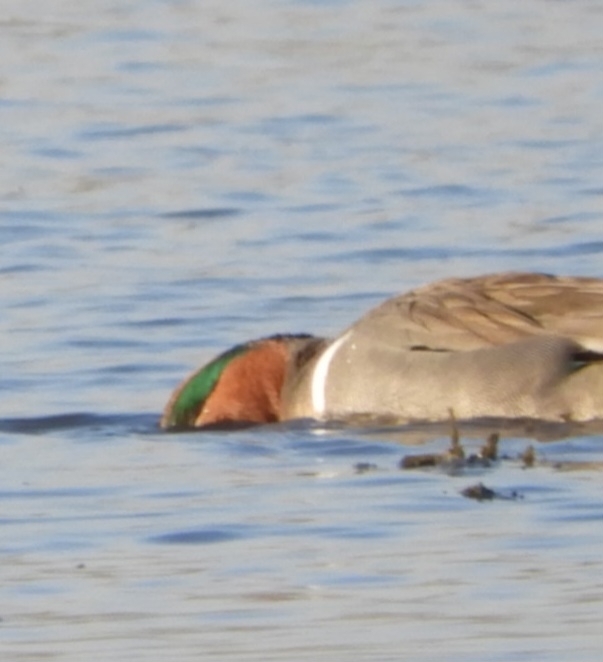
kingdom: Animalia
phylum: Chordata
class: Aves
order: Anseriformes
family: Anatidae
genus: Anas
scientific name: Anas crecca
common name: Eurasian teal
